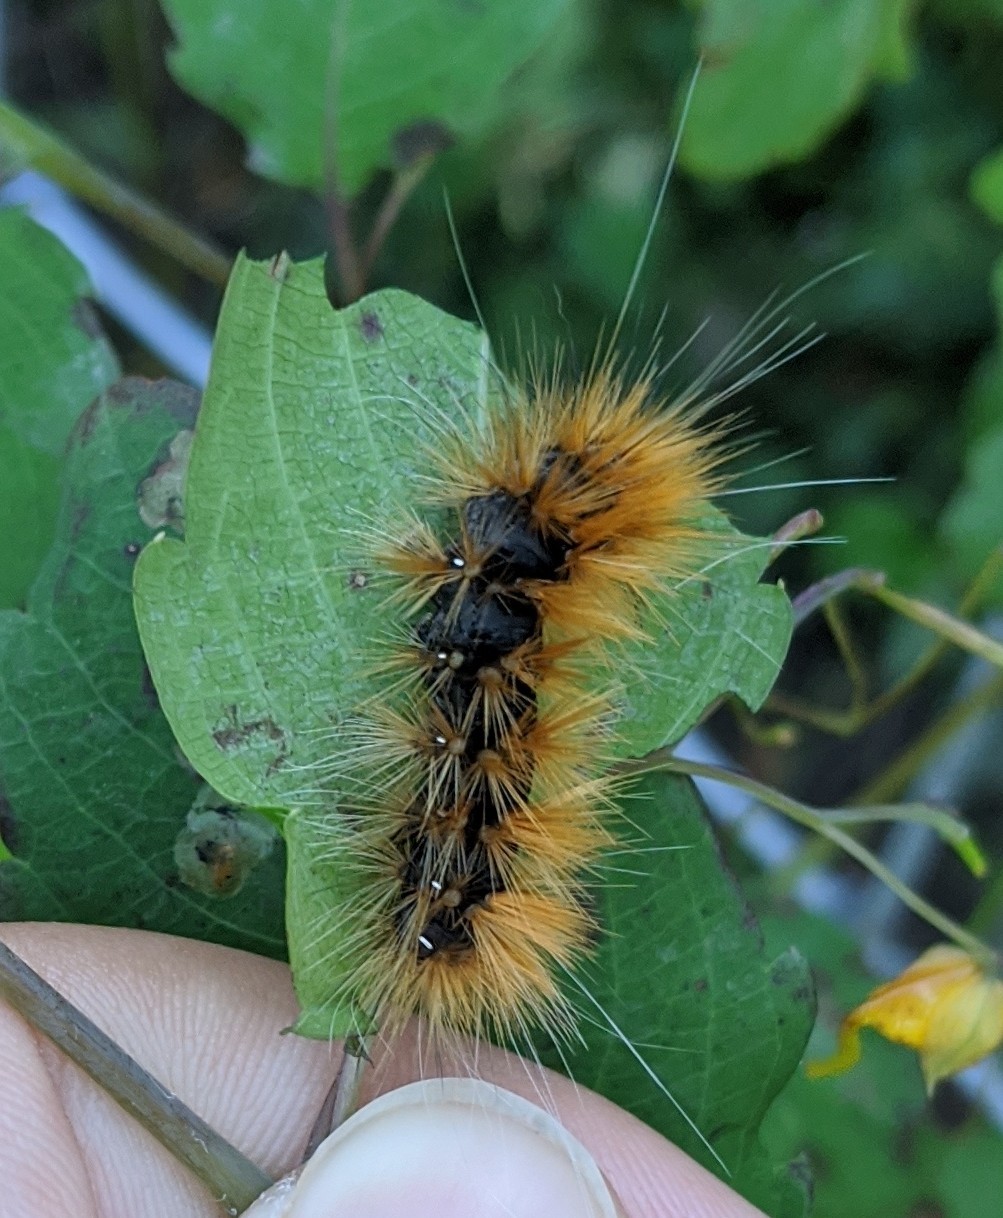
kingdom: Animalia
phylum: Arthropoda
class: Insecta
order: Lepidoptera
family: Erebidae
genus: Spilosoma
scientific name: Spilosoma virginica
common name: Virginia tiger moth
